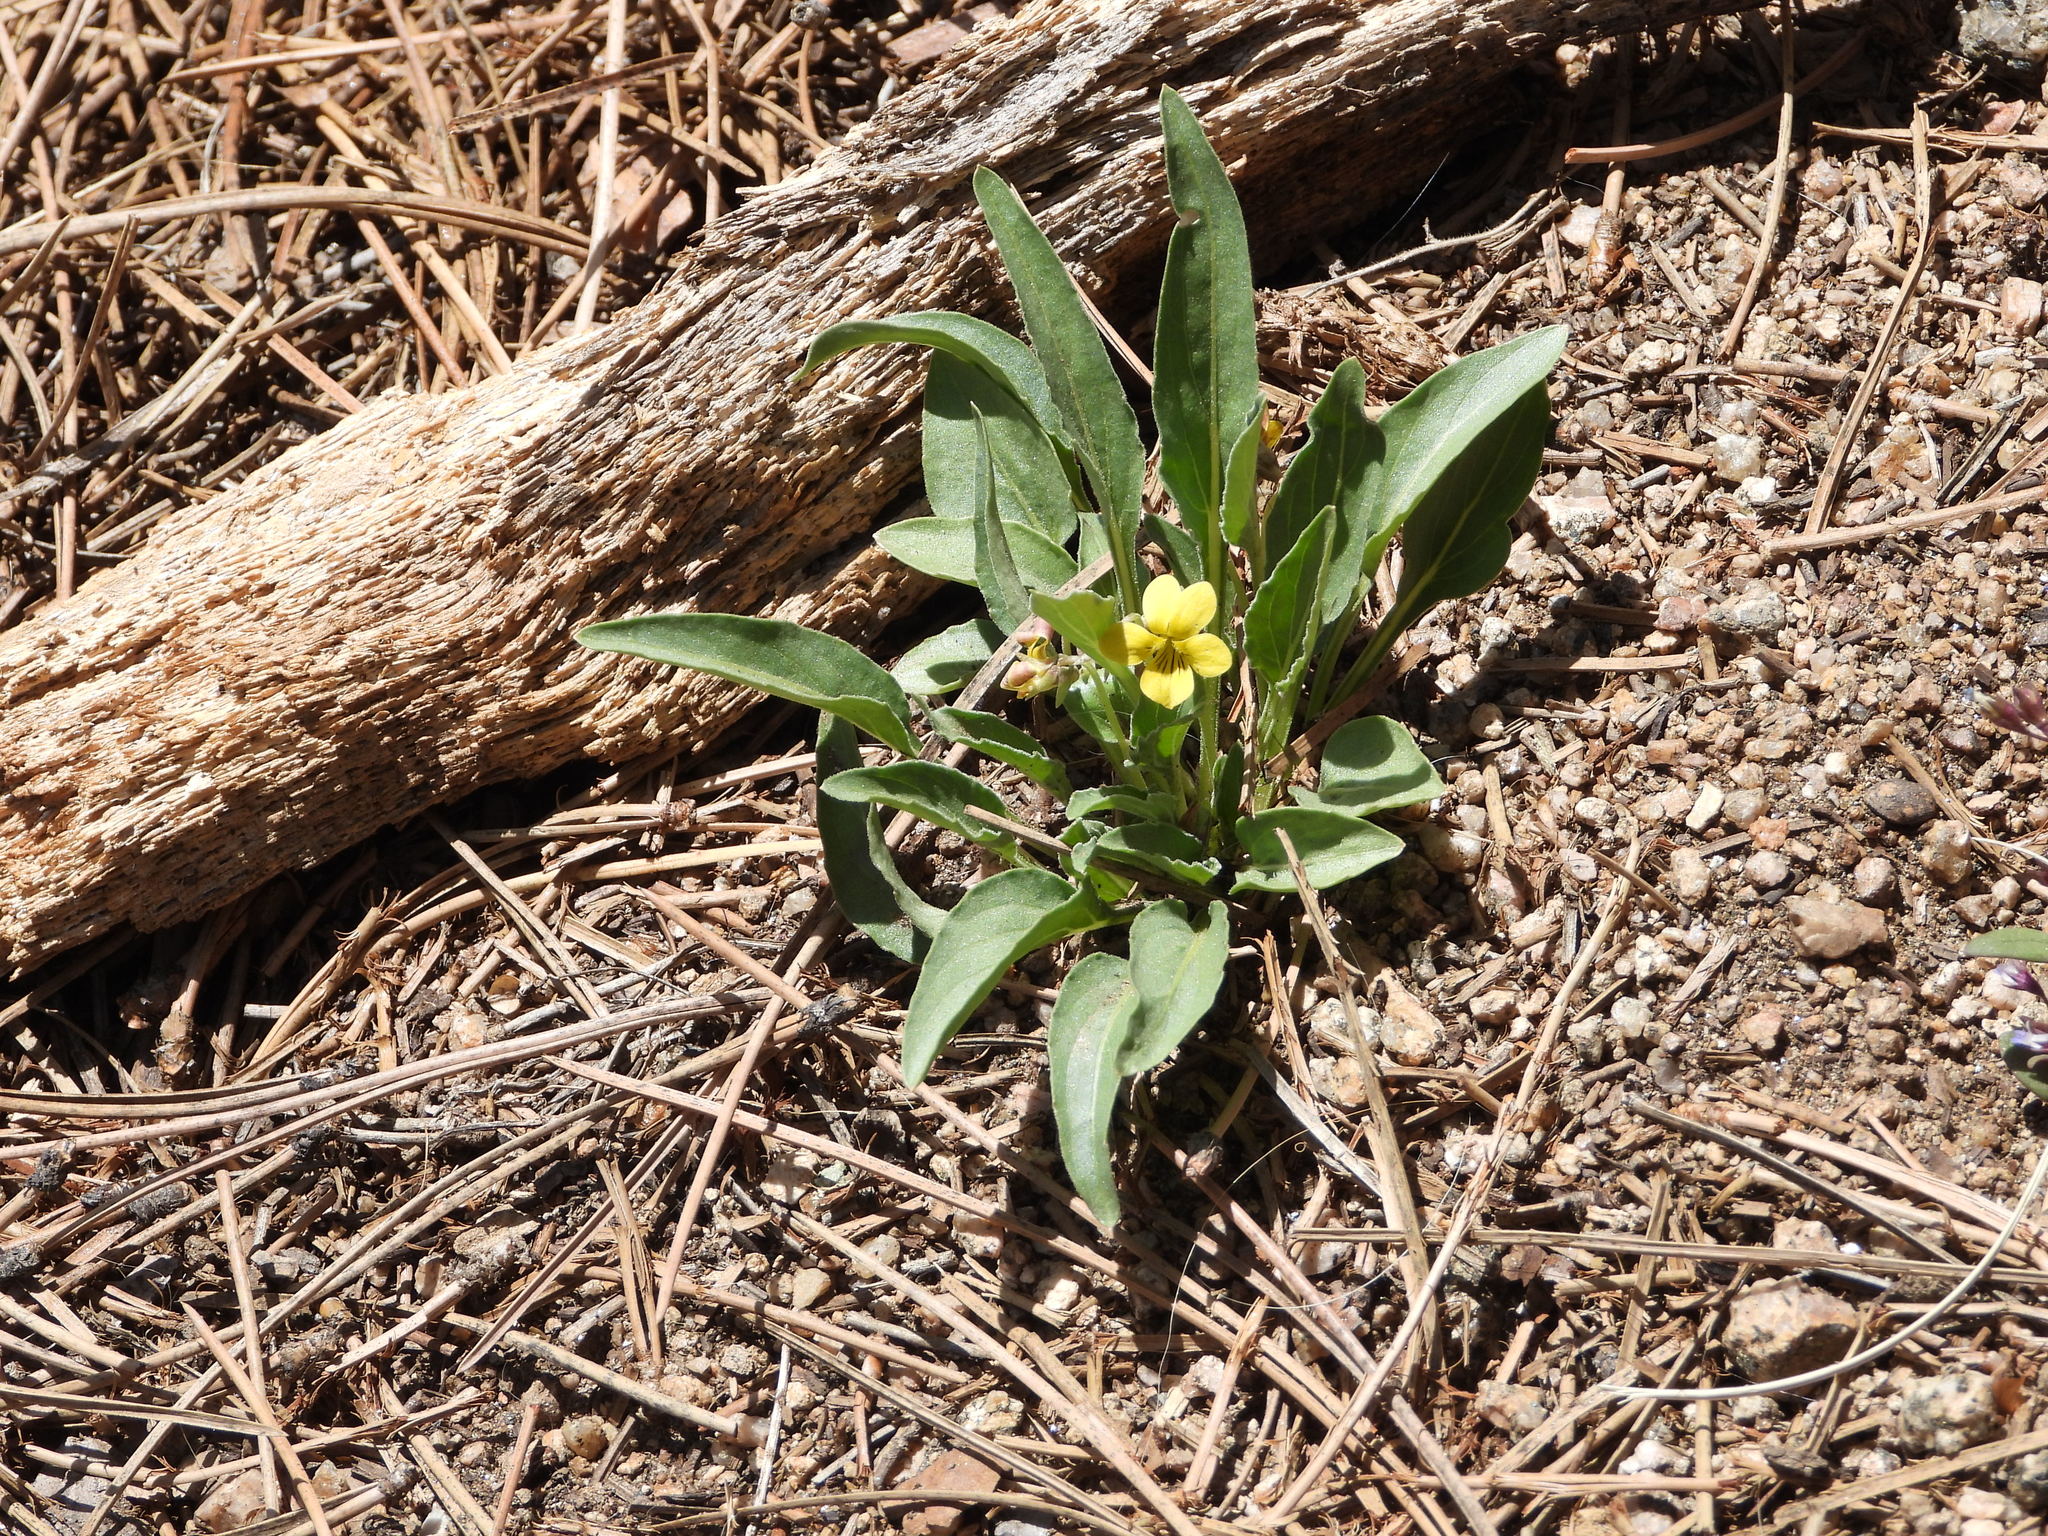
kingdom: Plantae
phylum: Tracheophyta
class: Magnoliopsida
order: Malpighiales
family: Violaceae
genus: Viola
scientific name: Viola nuttallii
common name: Yellow prairie violet
